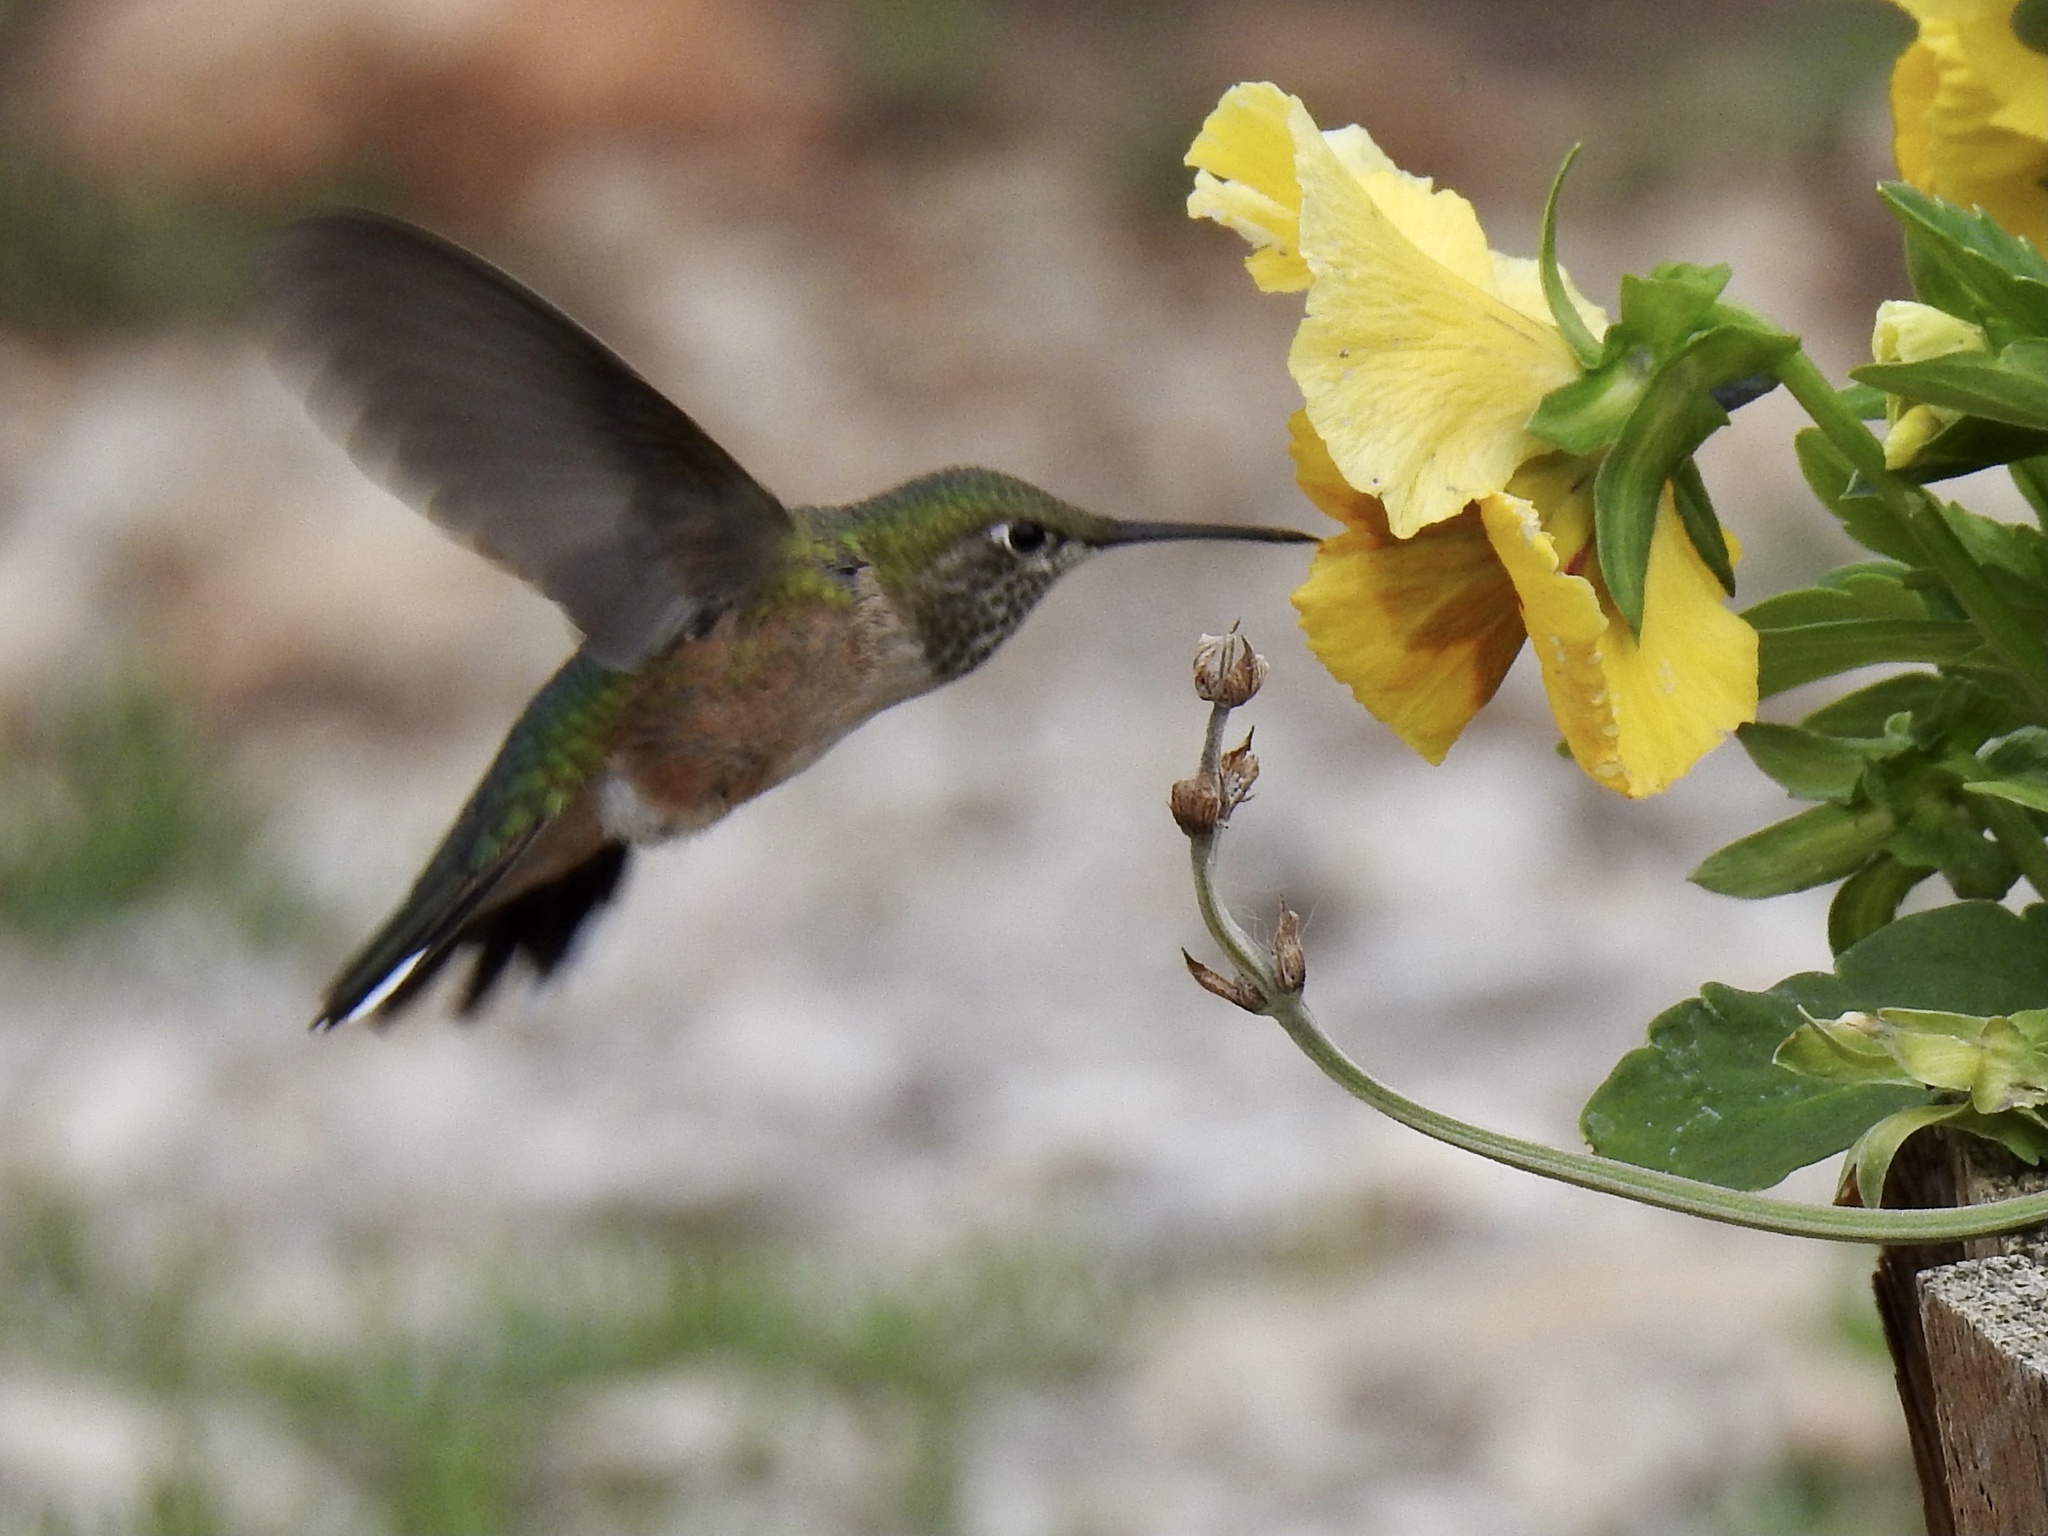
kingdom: Animalia
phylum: Chordata
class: Aves
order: Apodiformes
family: Trochilidae
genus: Selasphorus
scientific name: Selasphorus platycercus
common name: Broad-tailed hummingbird
